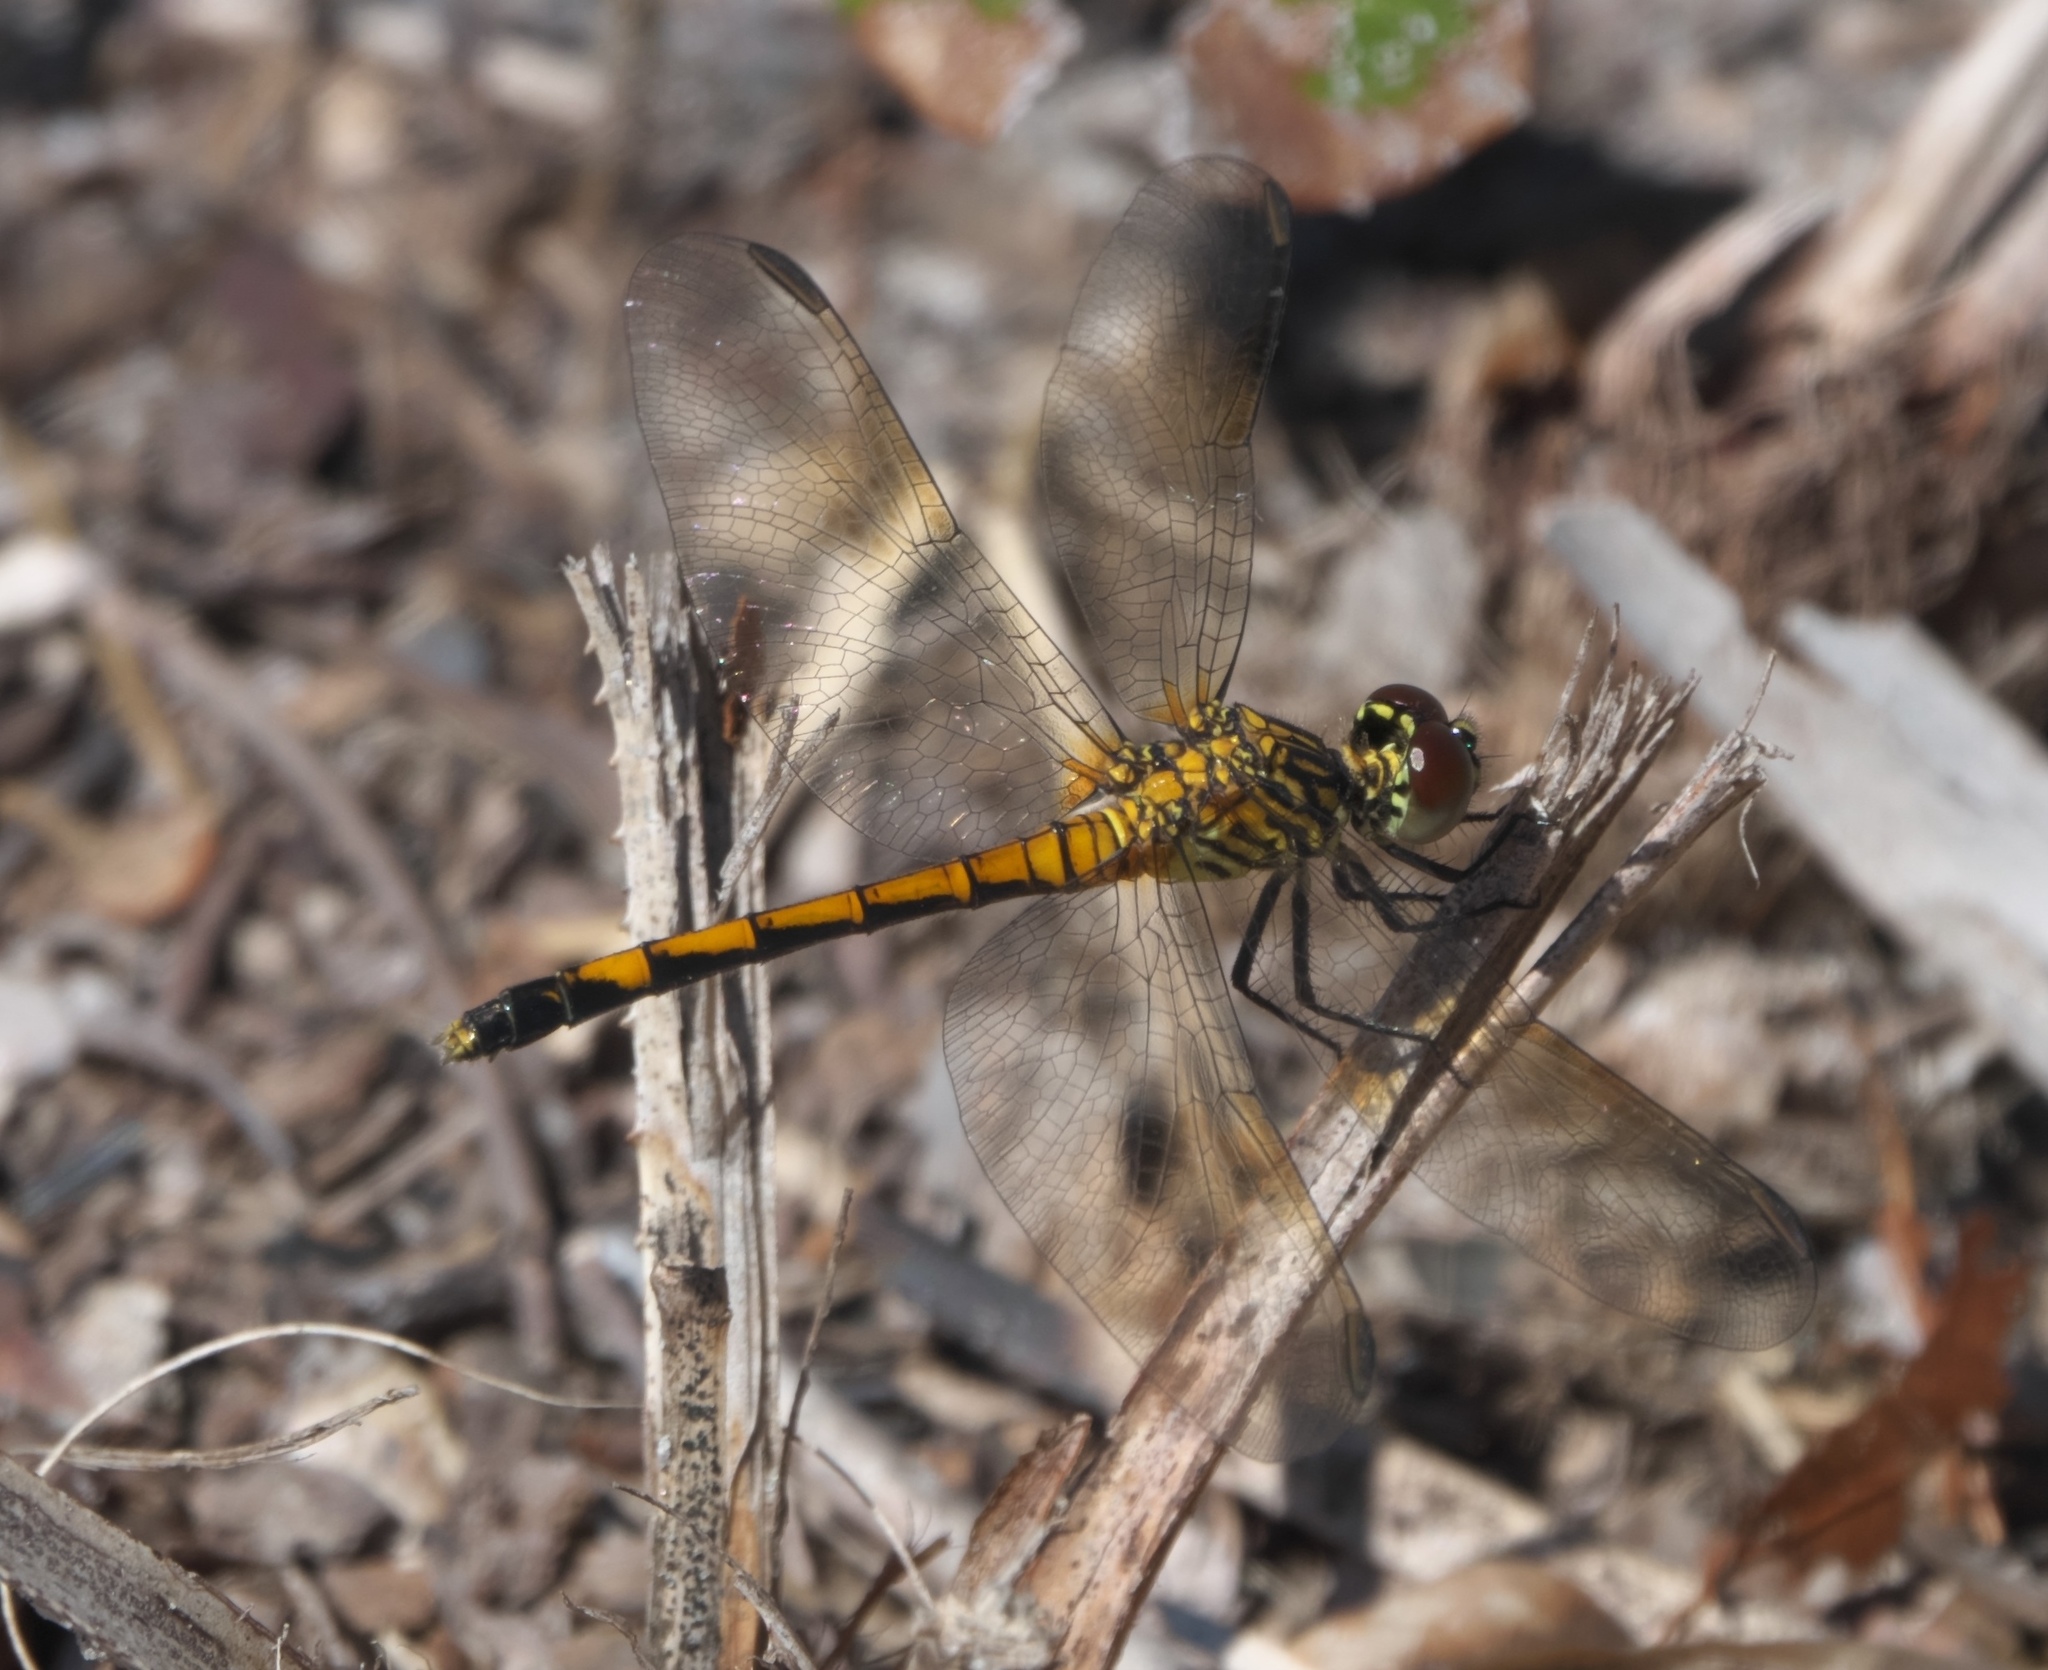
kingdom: Animalia
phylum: Arthropoda
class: Insecta
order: Odonata
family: Libellulidae
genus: Erythrodiplax
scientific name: Erythrodiplax berenice
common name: Seaside dragonlet
